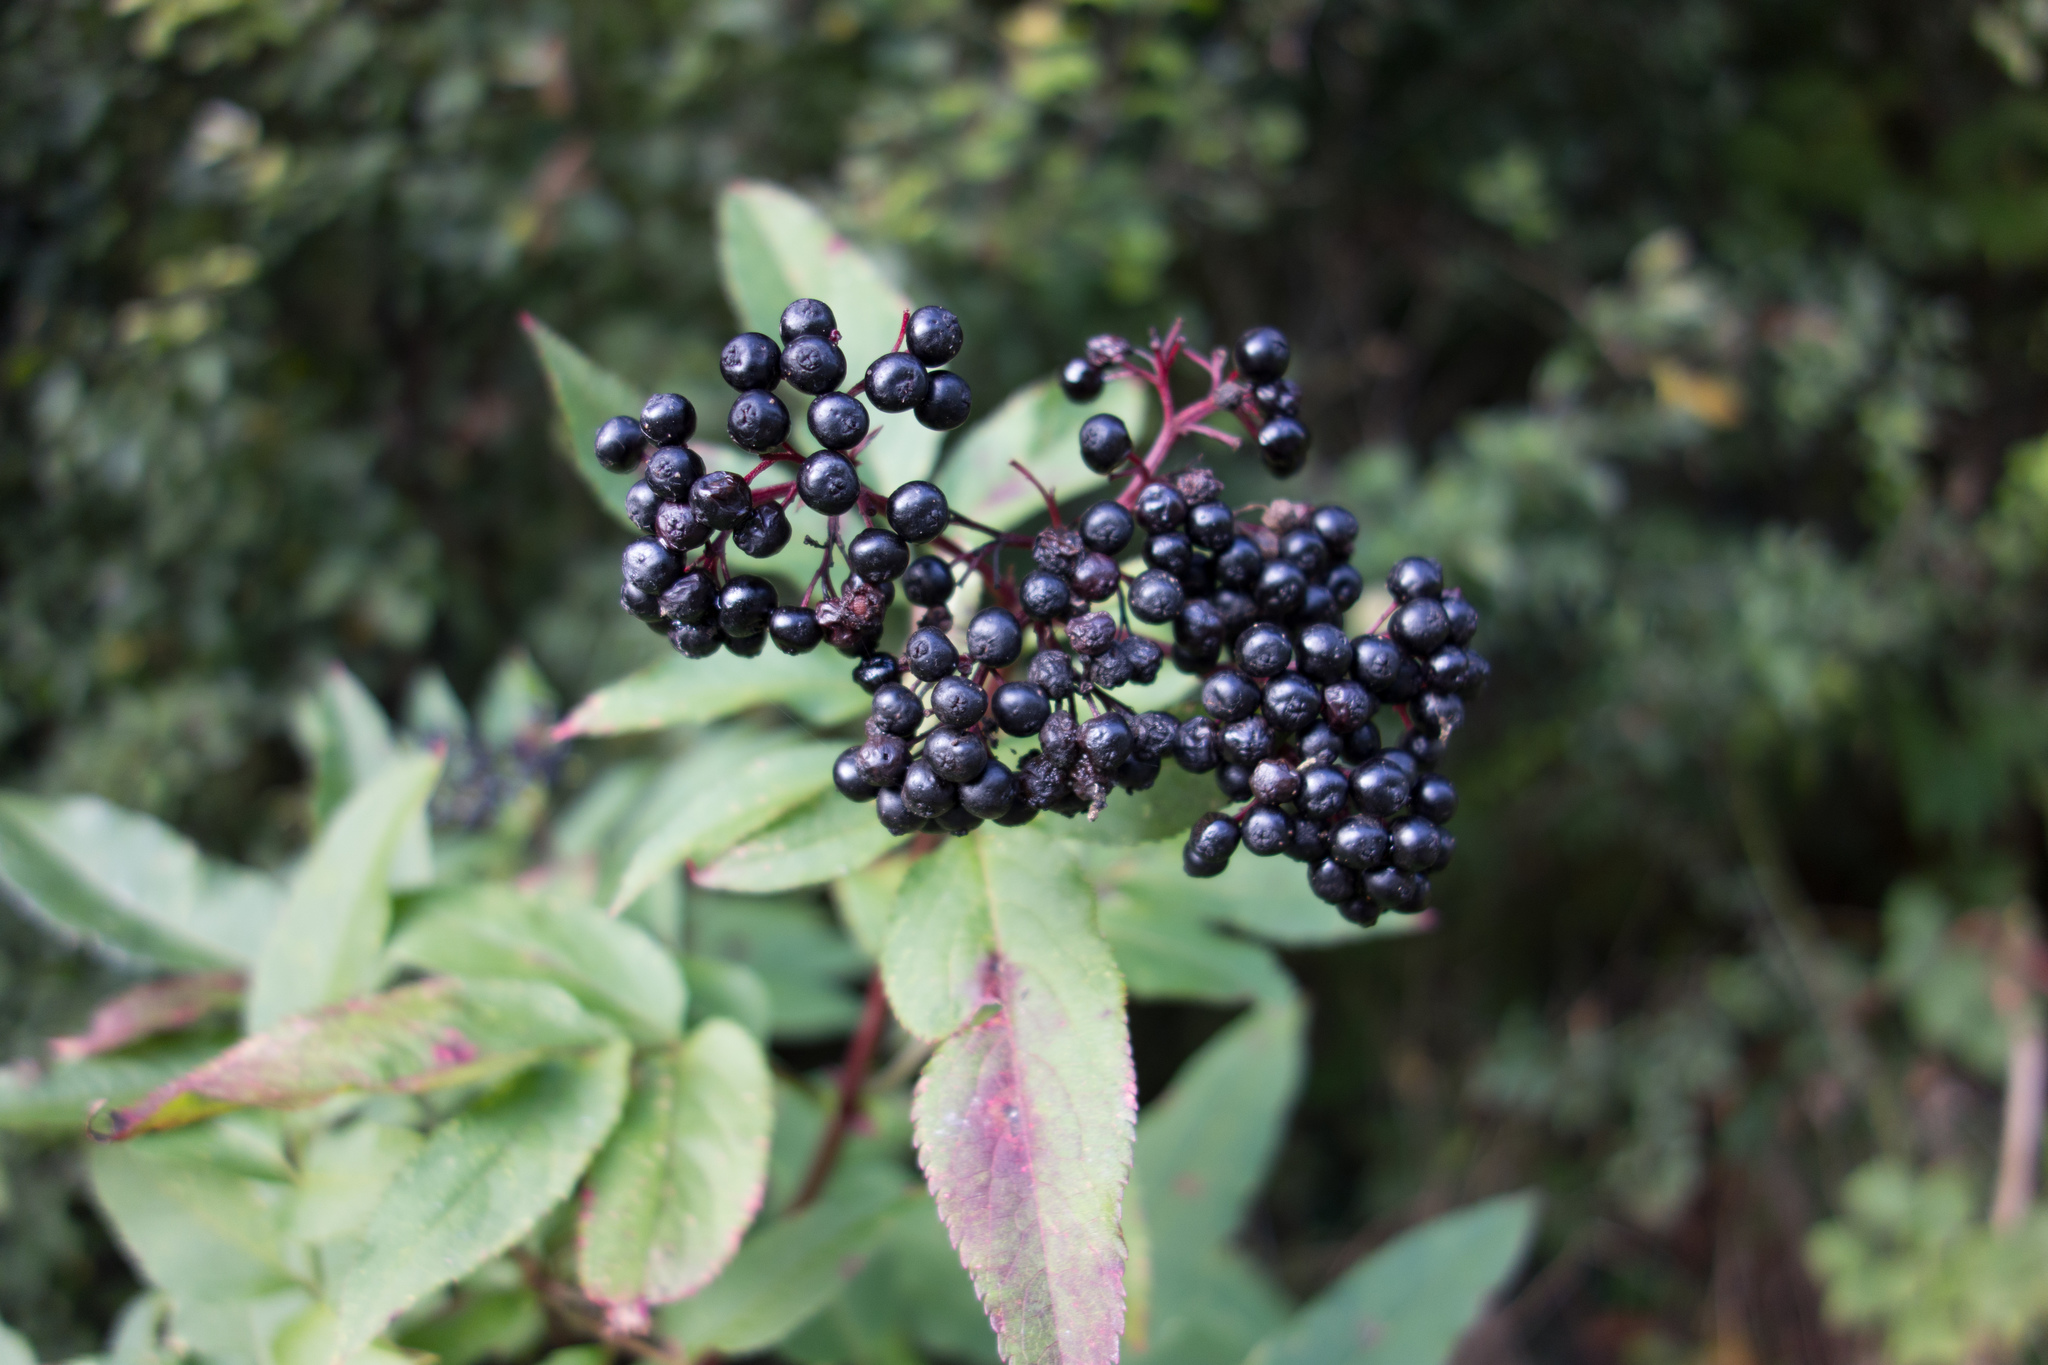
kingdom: Plantae
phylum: Tracheophyta
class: Magnoliopsida
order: Dipsacales
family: Viburnaceae
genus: Sambucus
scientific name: Sambucus ebulus
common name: Dwarf elder
